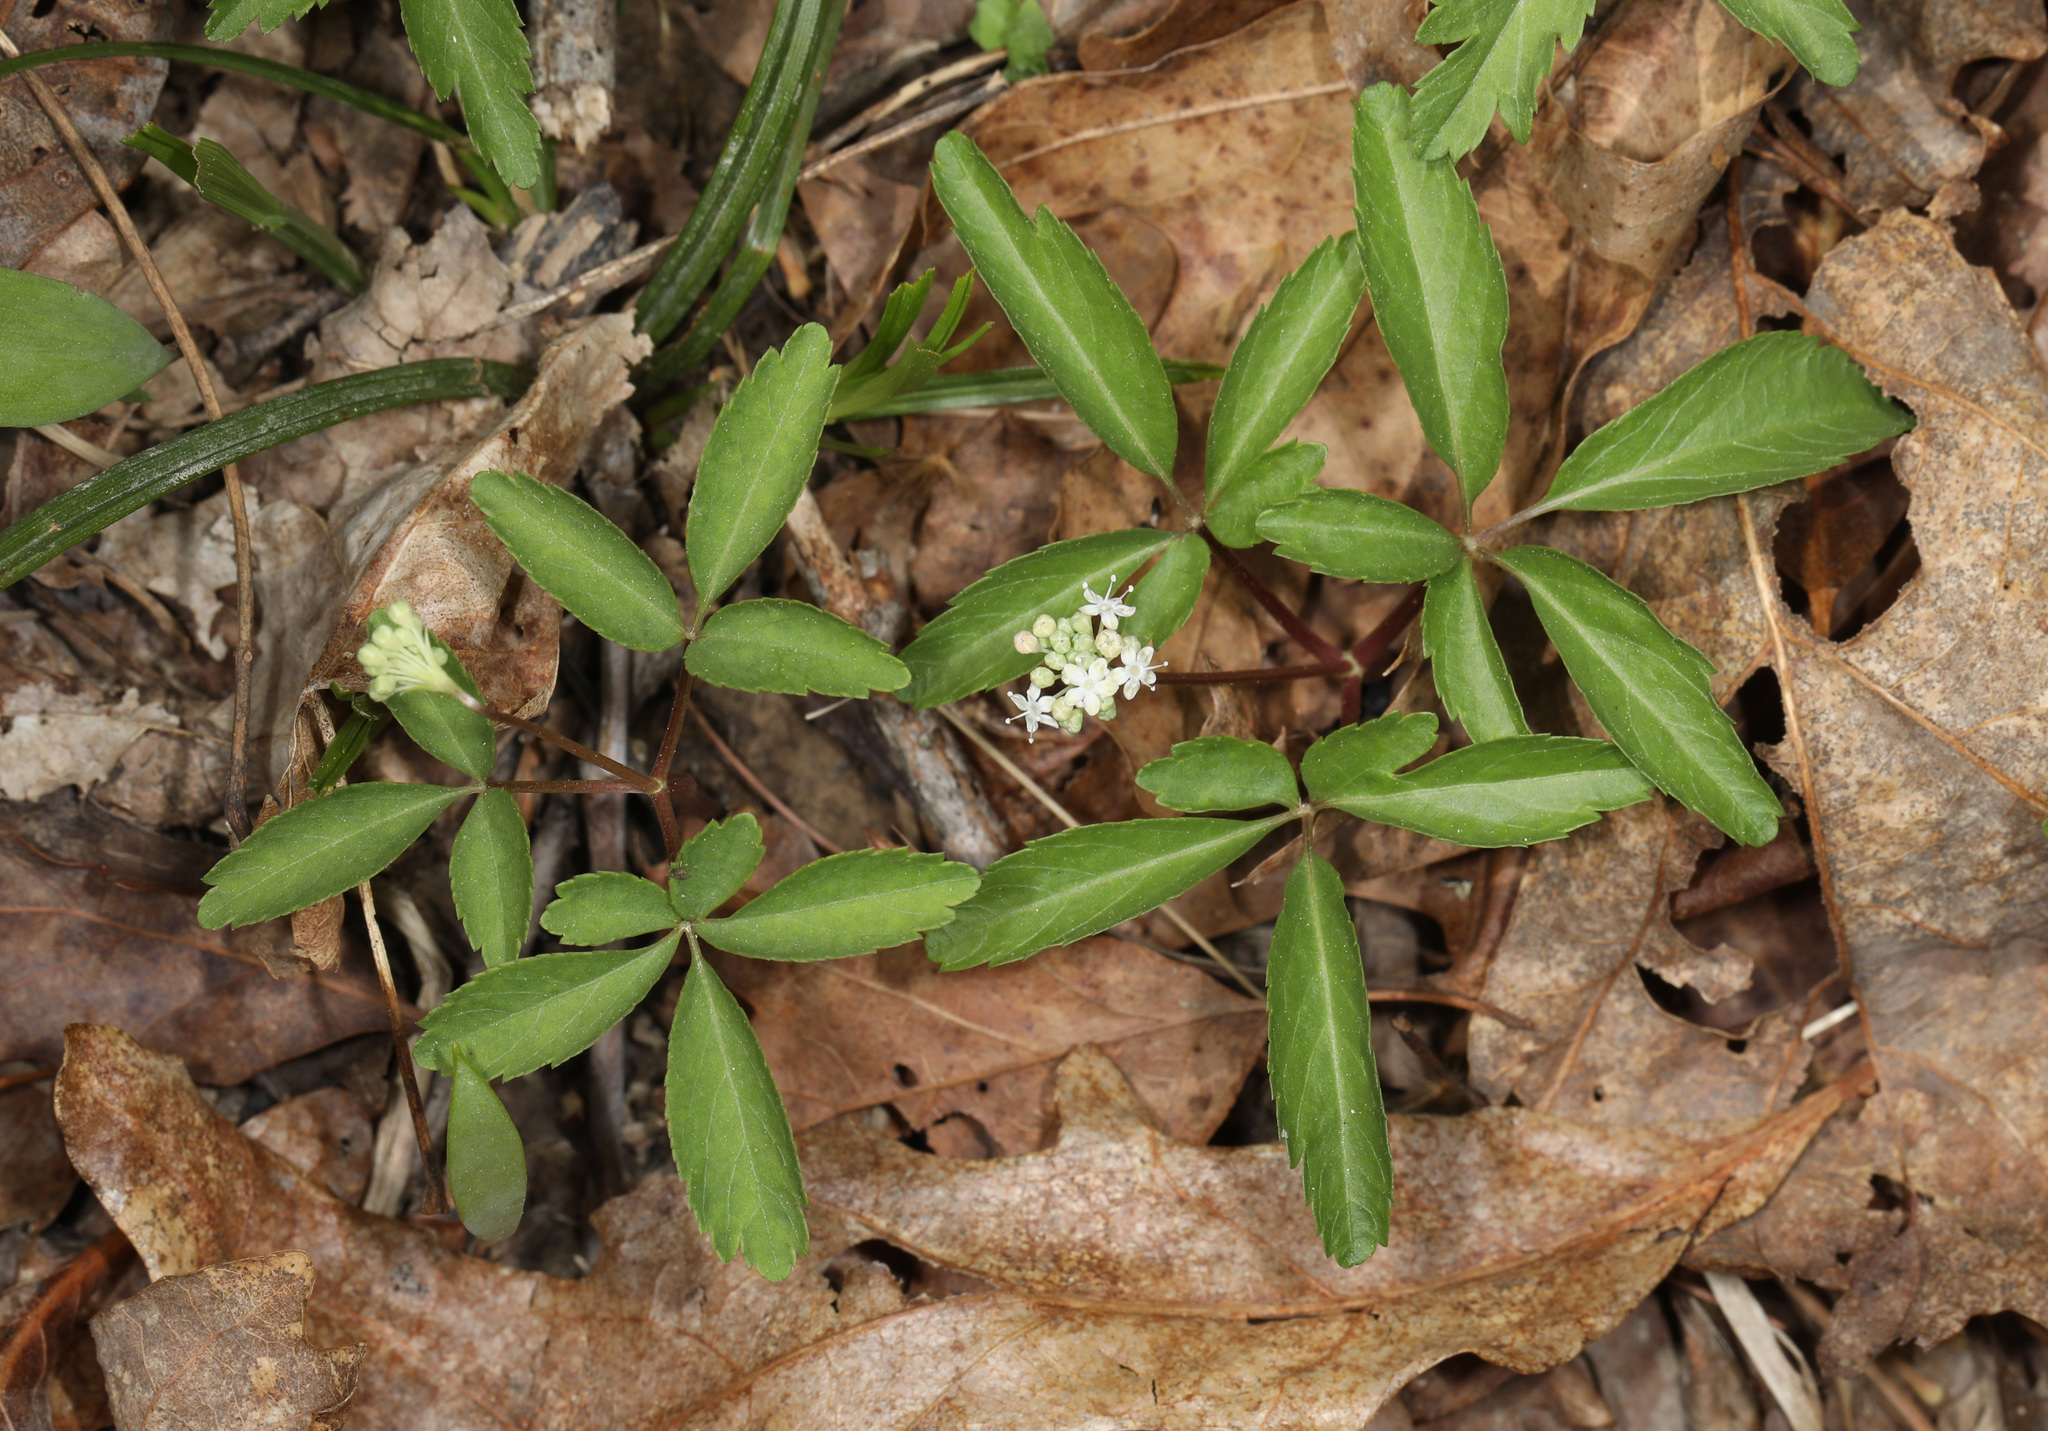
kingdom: Plantae
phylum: Tracheophyta
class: Magnoliopsida
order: Apiales
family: Araliaceae
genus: Panax
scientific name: Panax trifolius
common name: Dwarf ginseng
